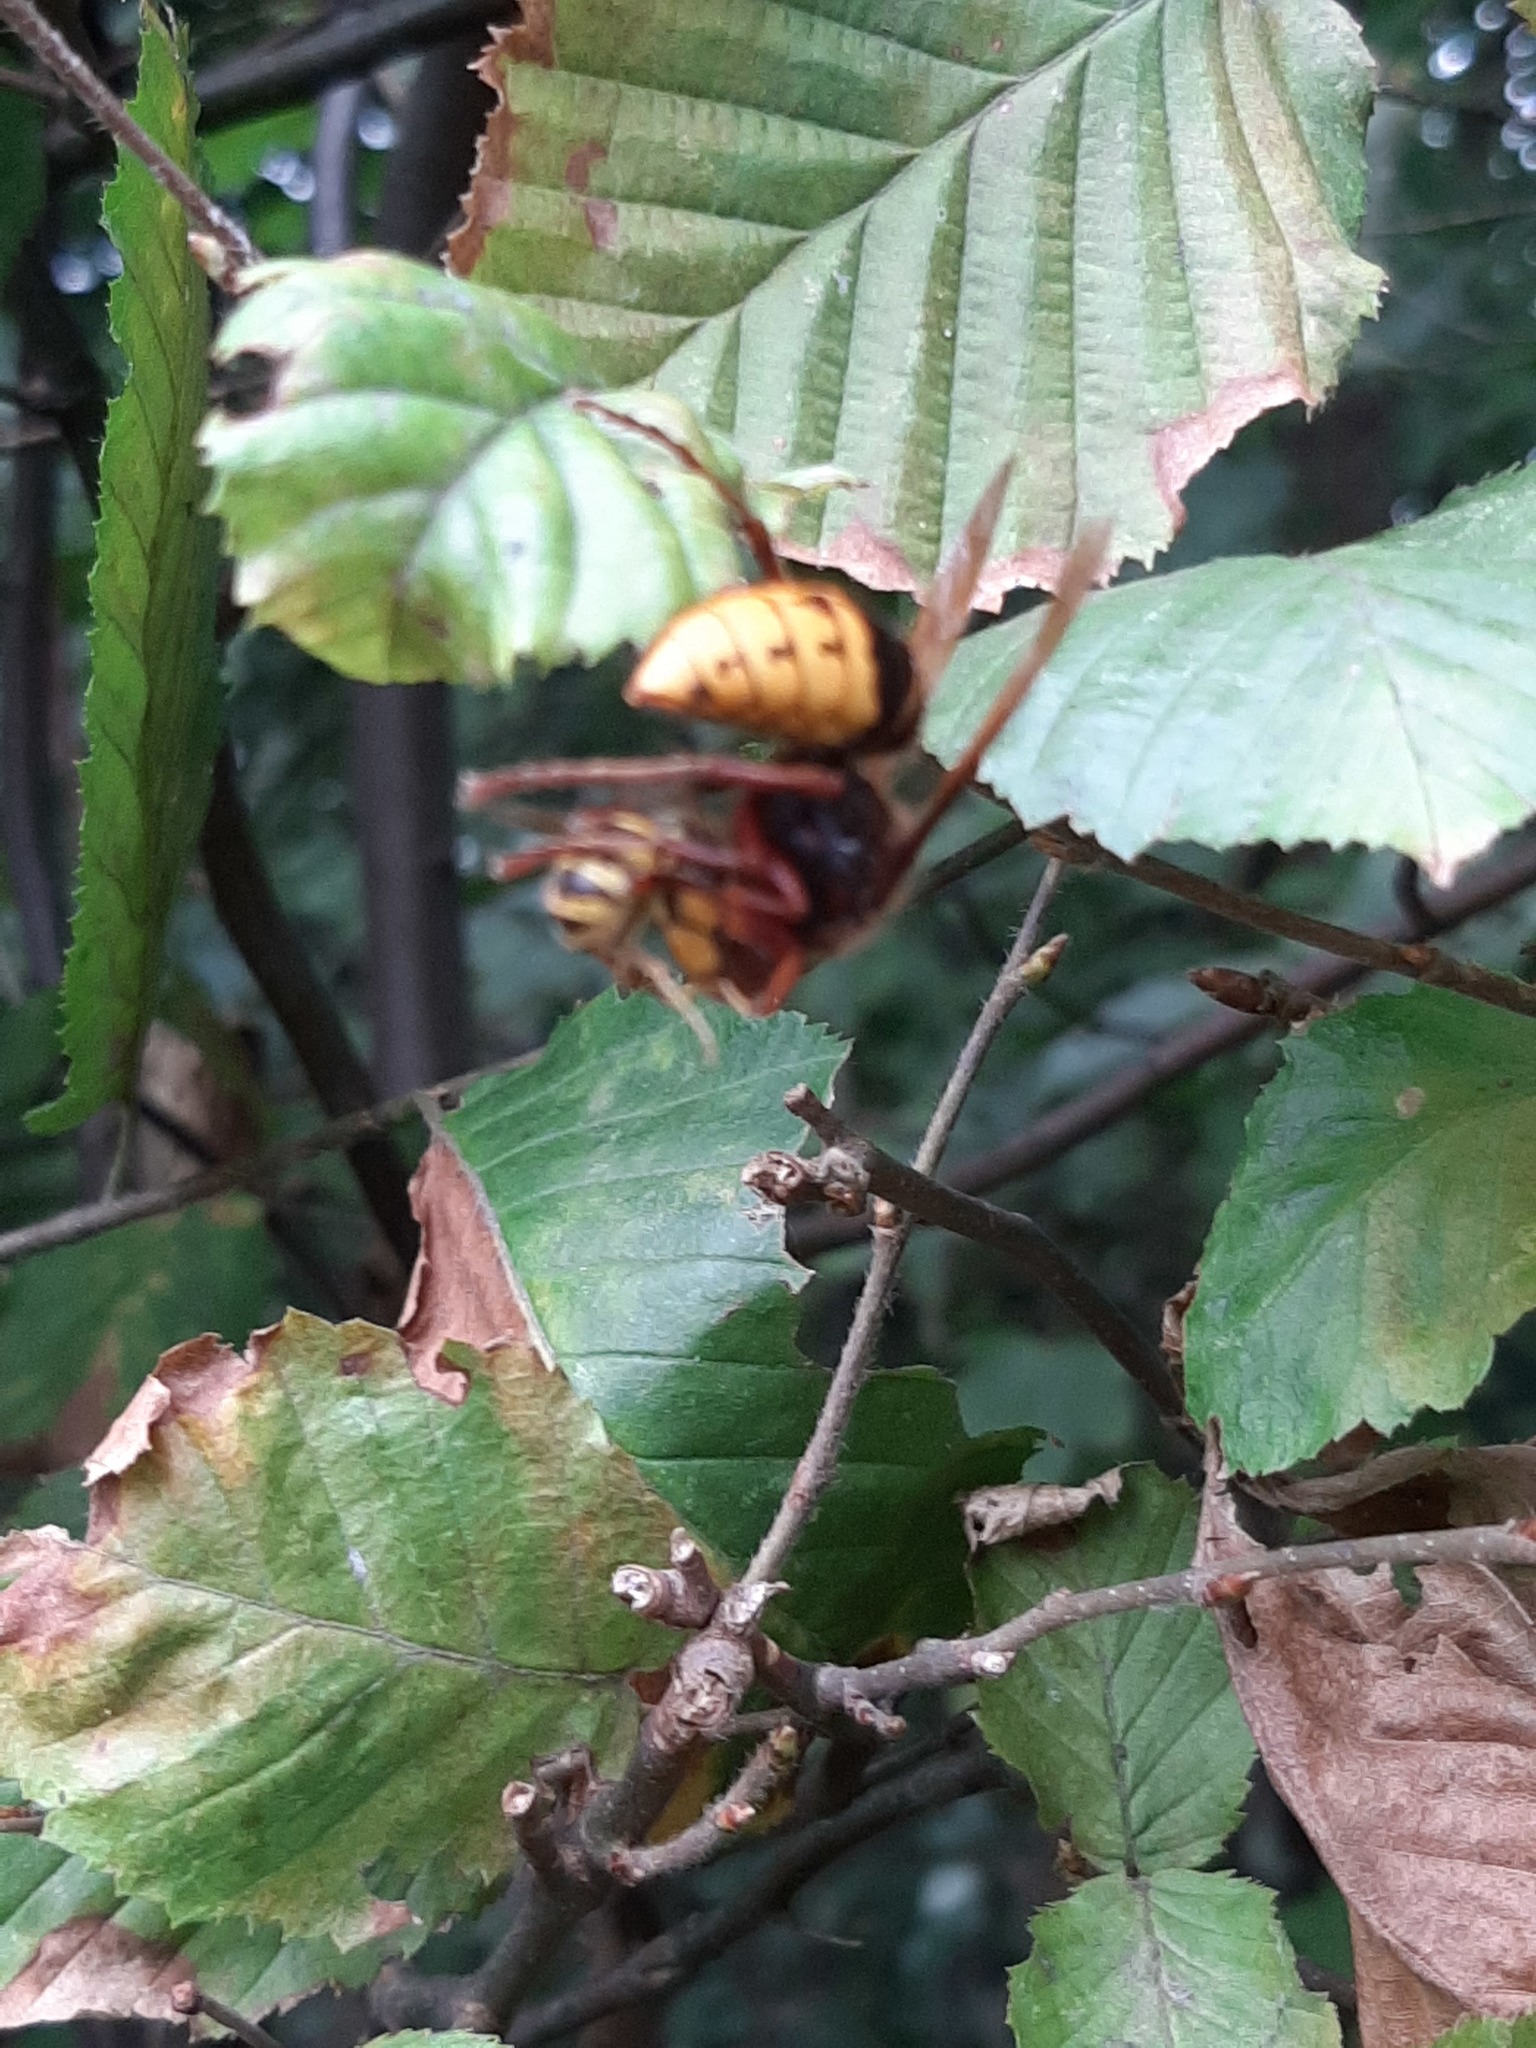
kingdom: Animalia
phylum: Arthropoda
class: Insecta
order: Hymenoptera
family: Vespidae
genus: Vespa
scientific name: Vespa crabro
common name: Hornet
